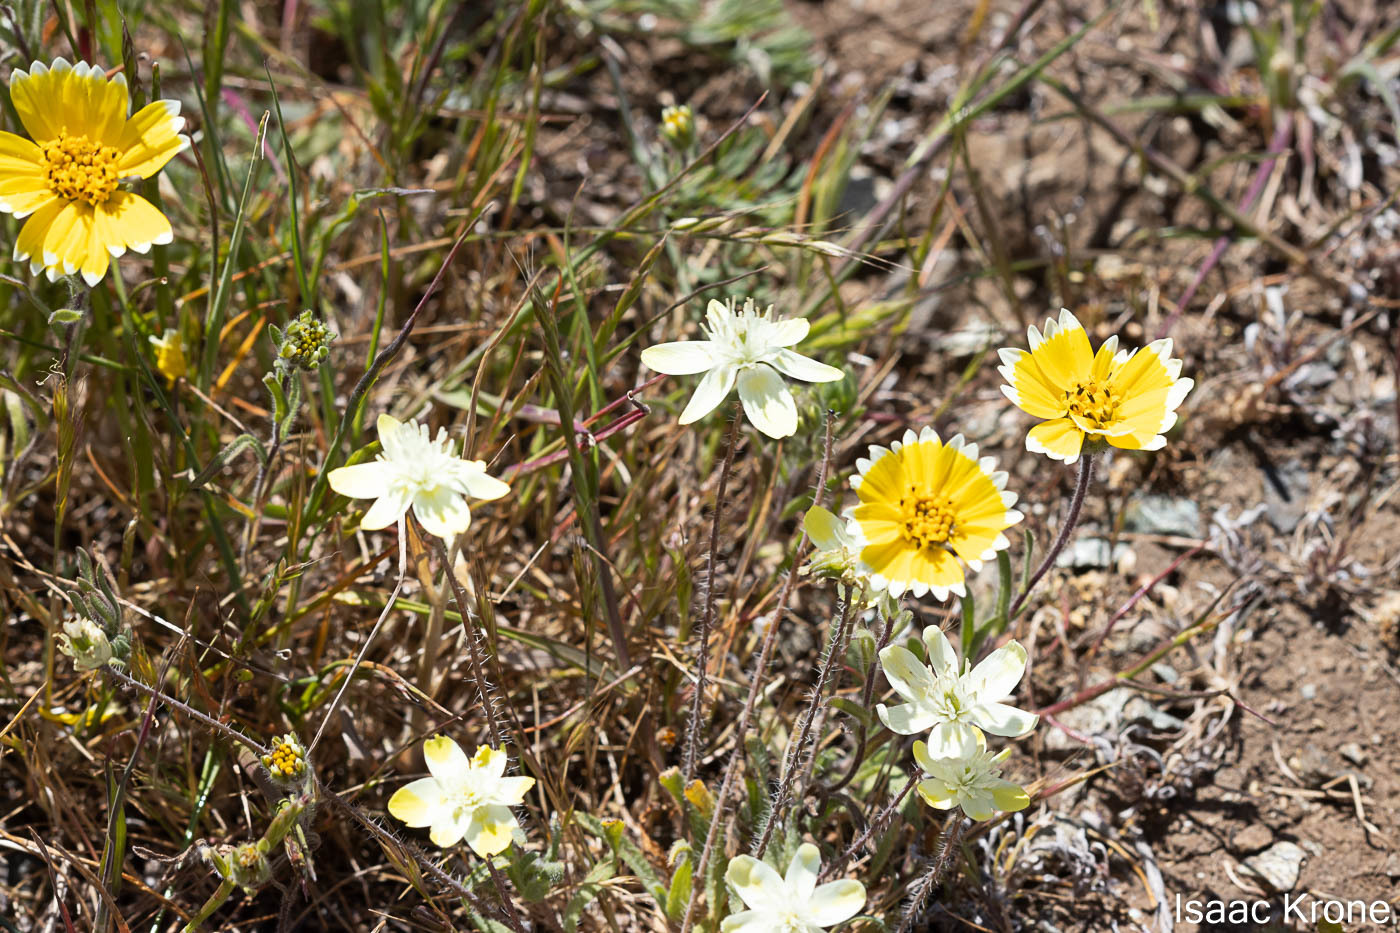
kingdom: Plantae
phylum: Tracheophyta
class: Magnoliopsida
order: Ranunculales
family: Papaveraceae
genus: Platystemon
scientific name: Platystemon californicus
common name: Cream-cups
